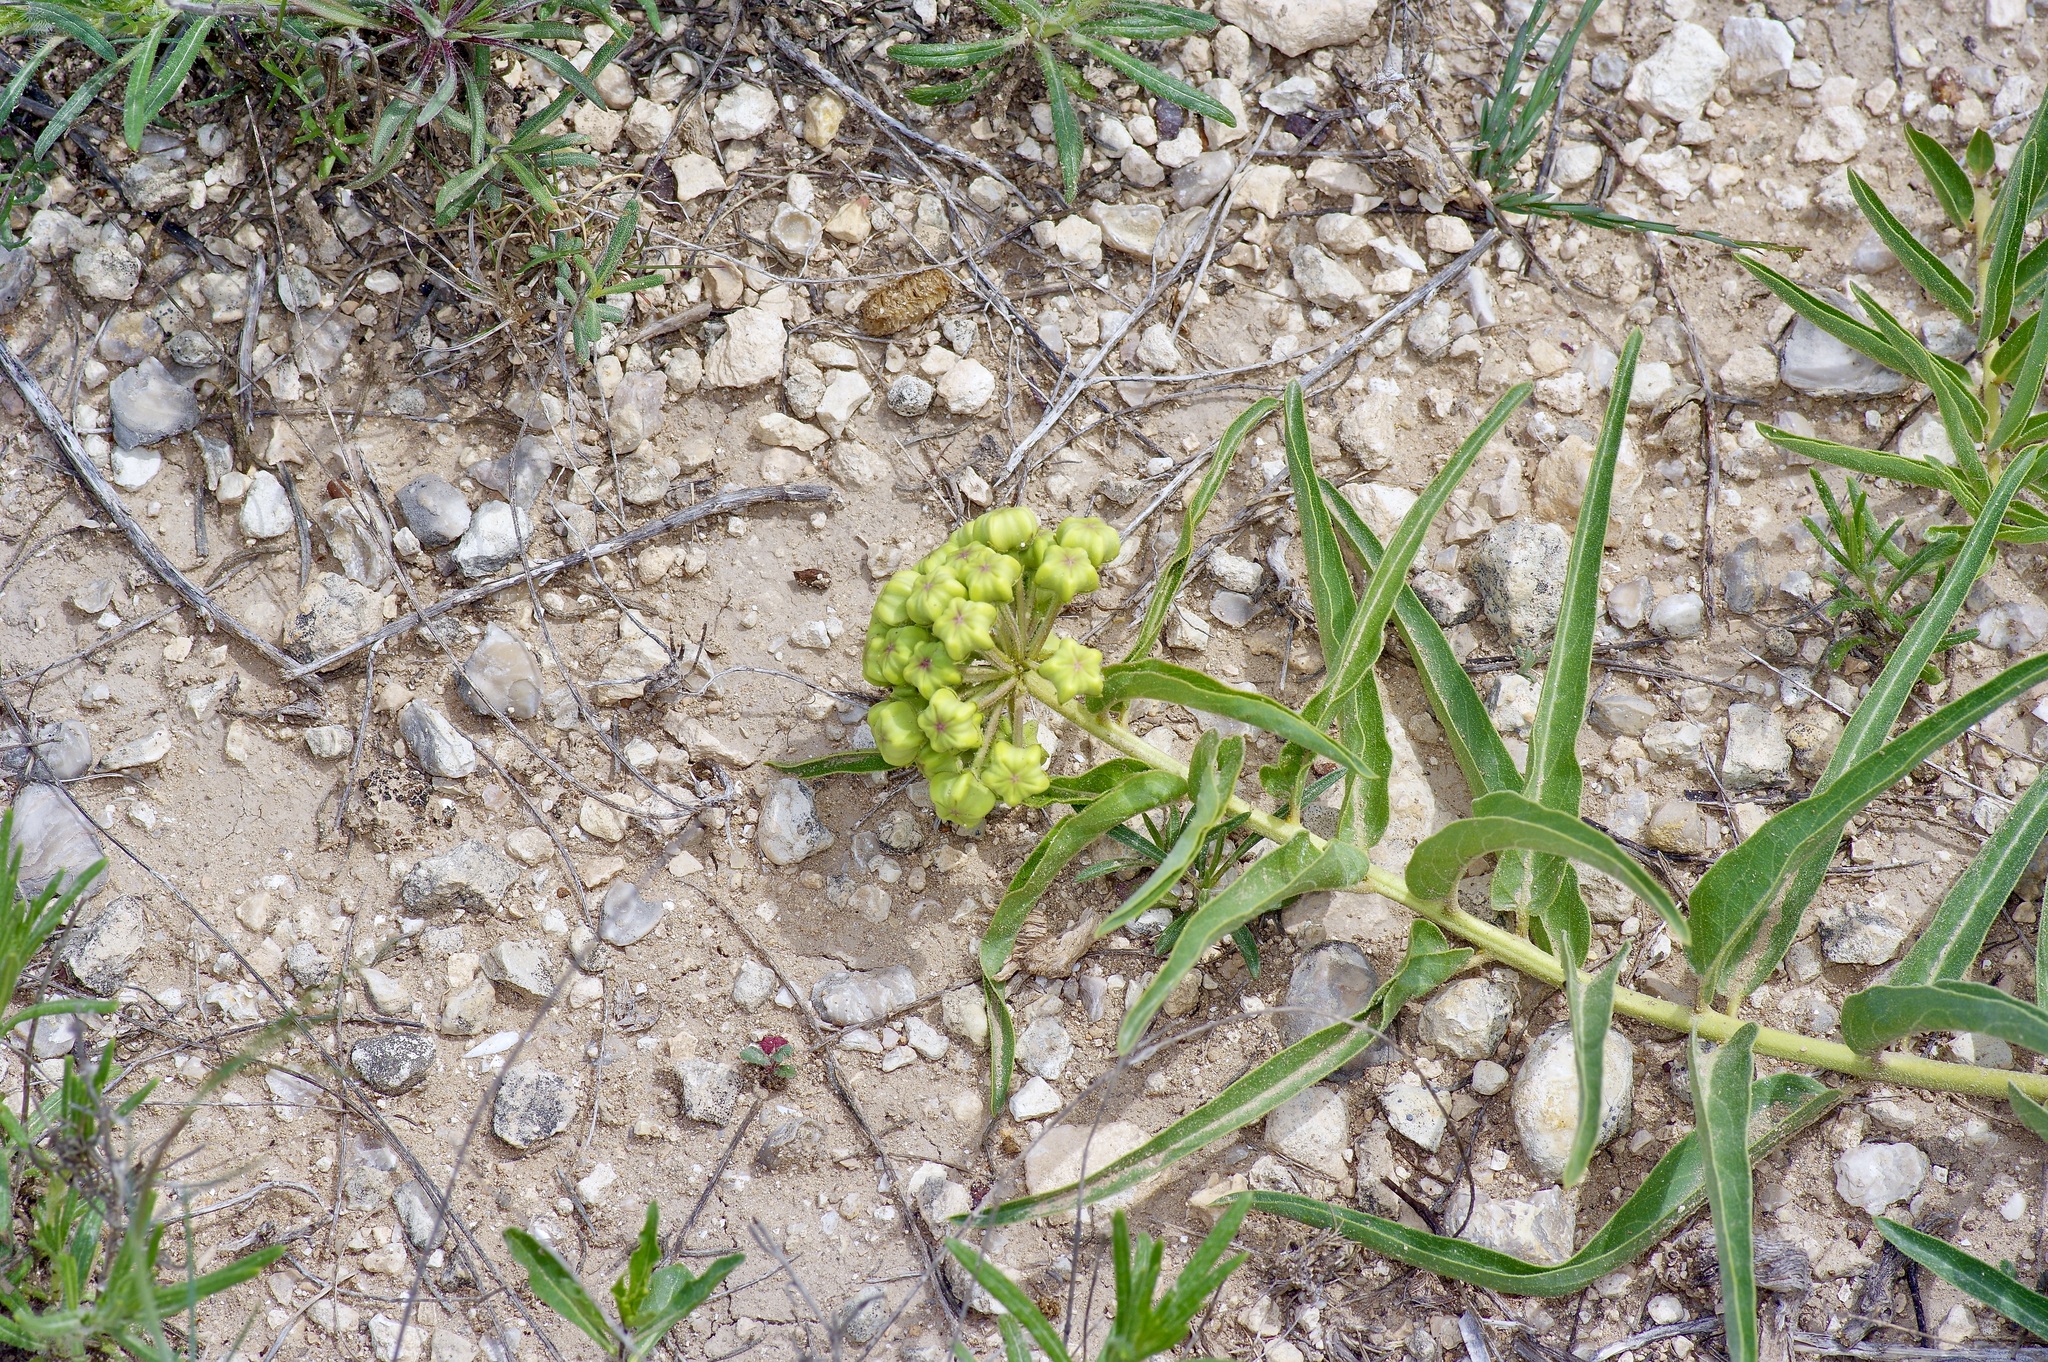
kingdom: Plantae
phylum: Tracheophyta
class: Magnoliopsida
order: Gentianales
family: Apocynaceae
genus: Asclepias
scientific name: Asclepias asperula
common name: Antelope horns
